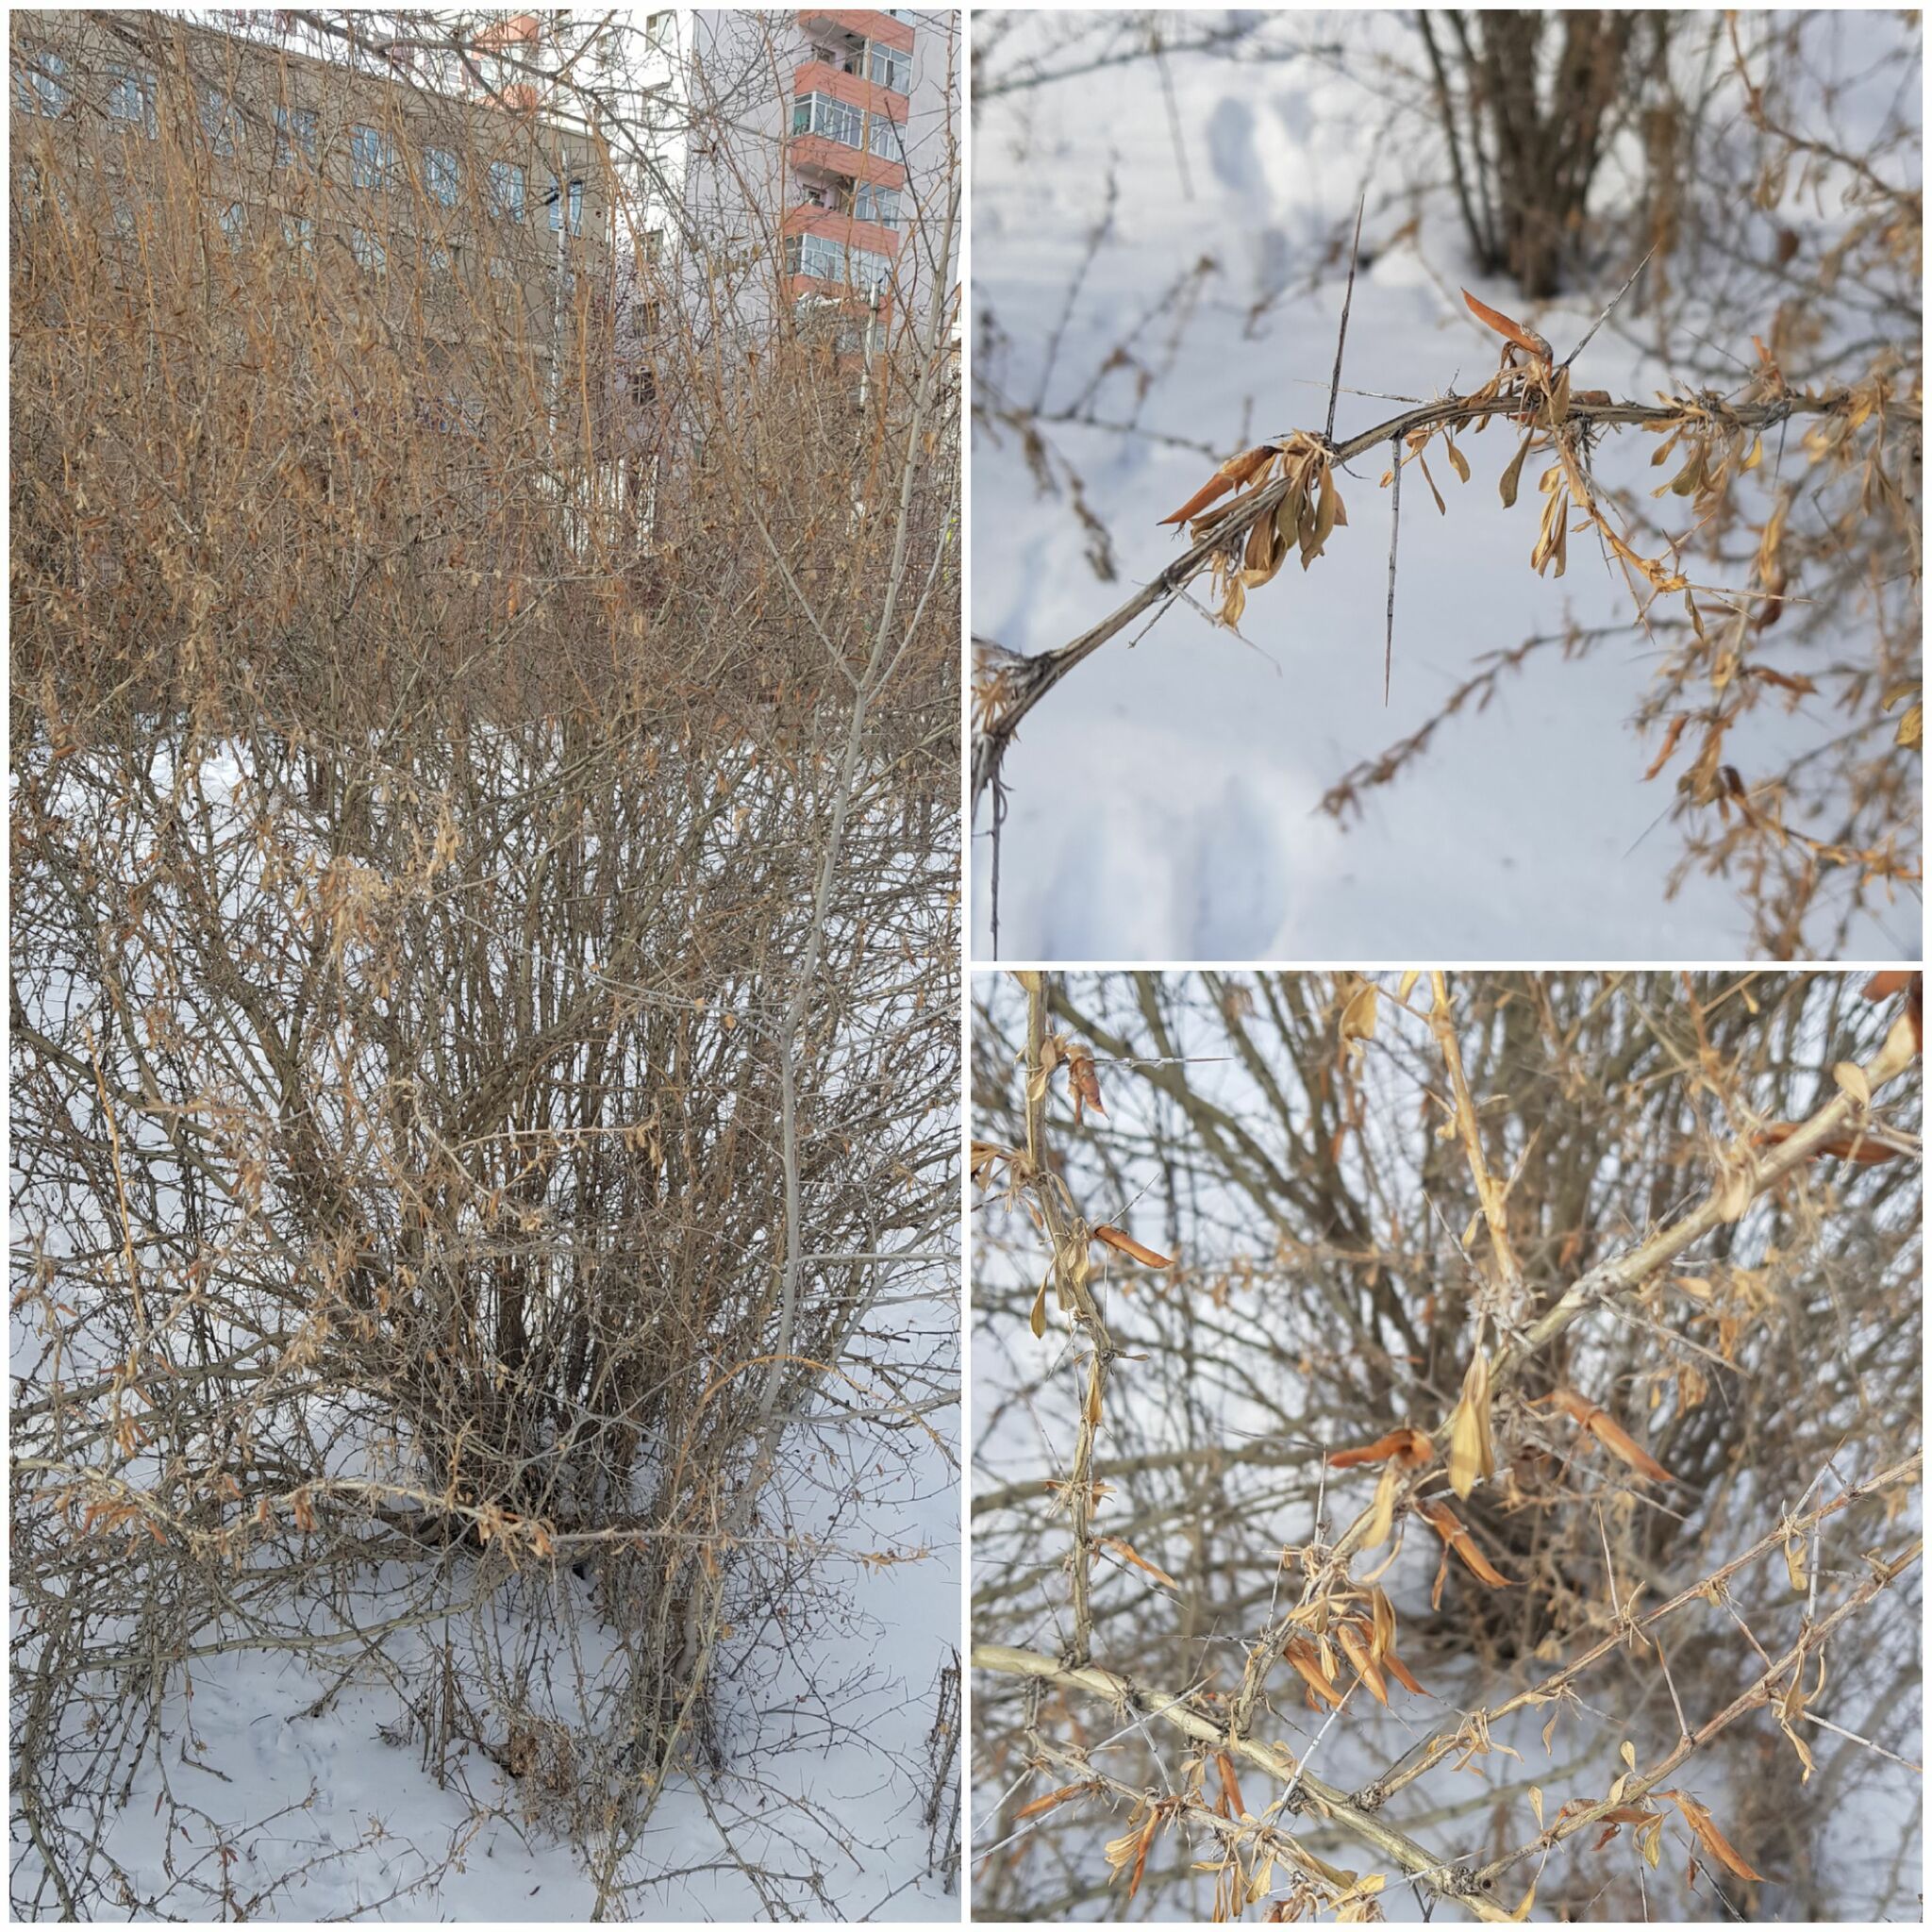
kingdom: Plantae
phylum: Tracheophyta
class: Magnoliopsida
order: Fabales
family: Fabaceae
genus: Caragana
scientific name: Caragana spinosa
